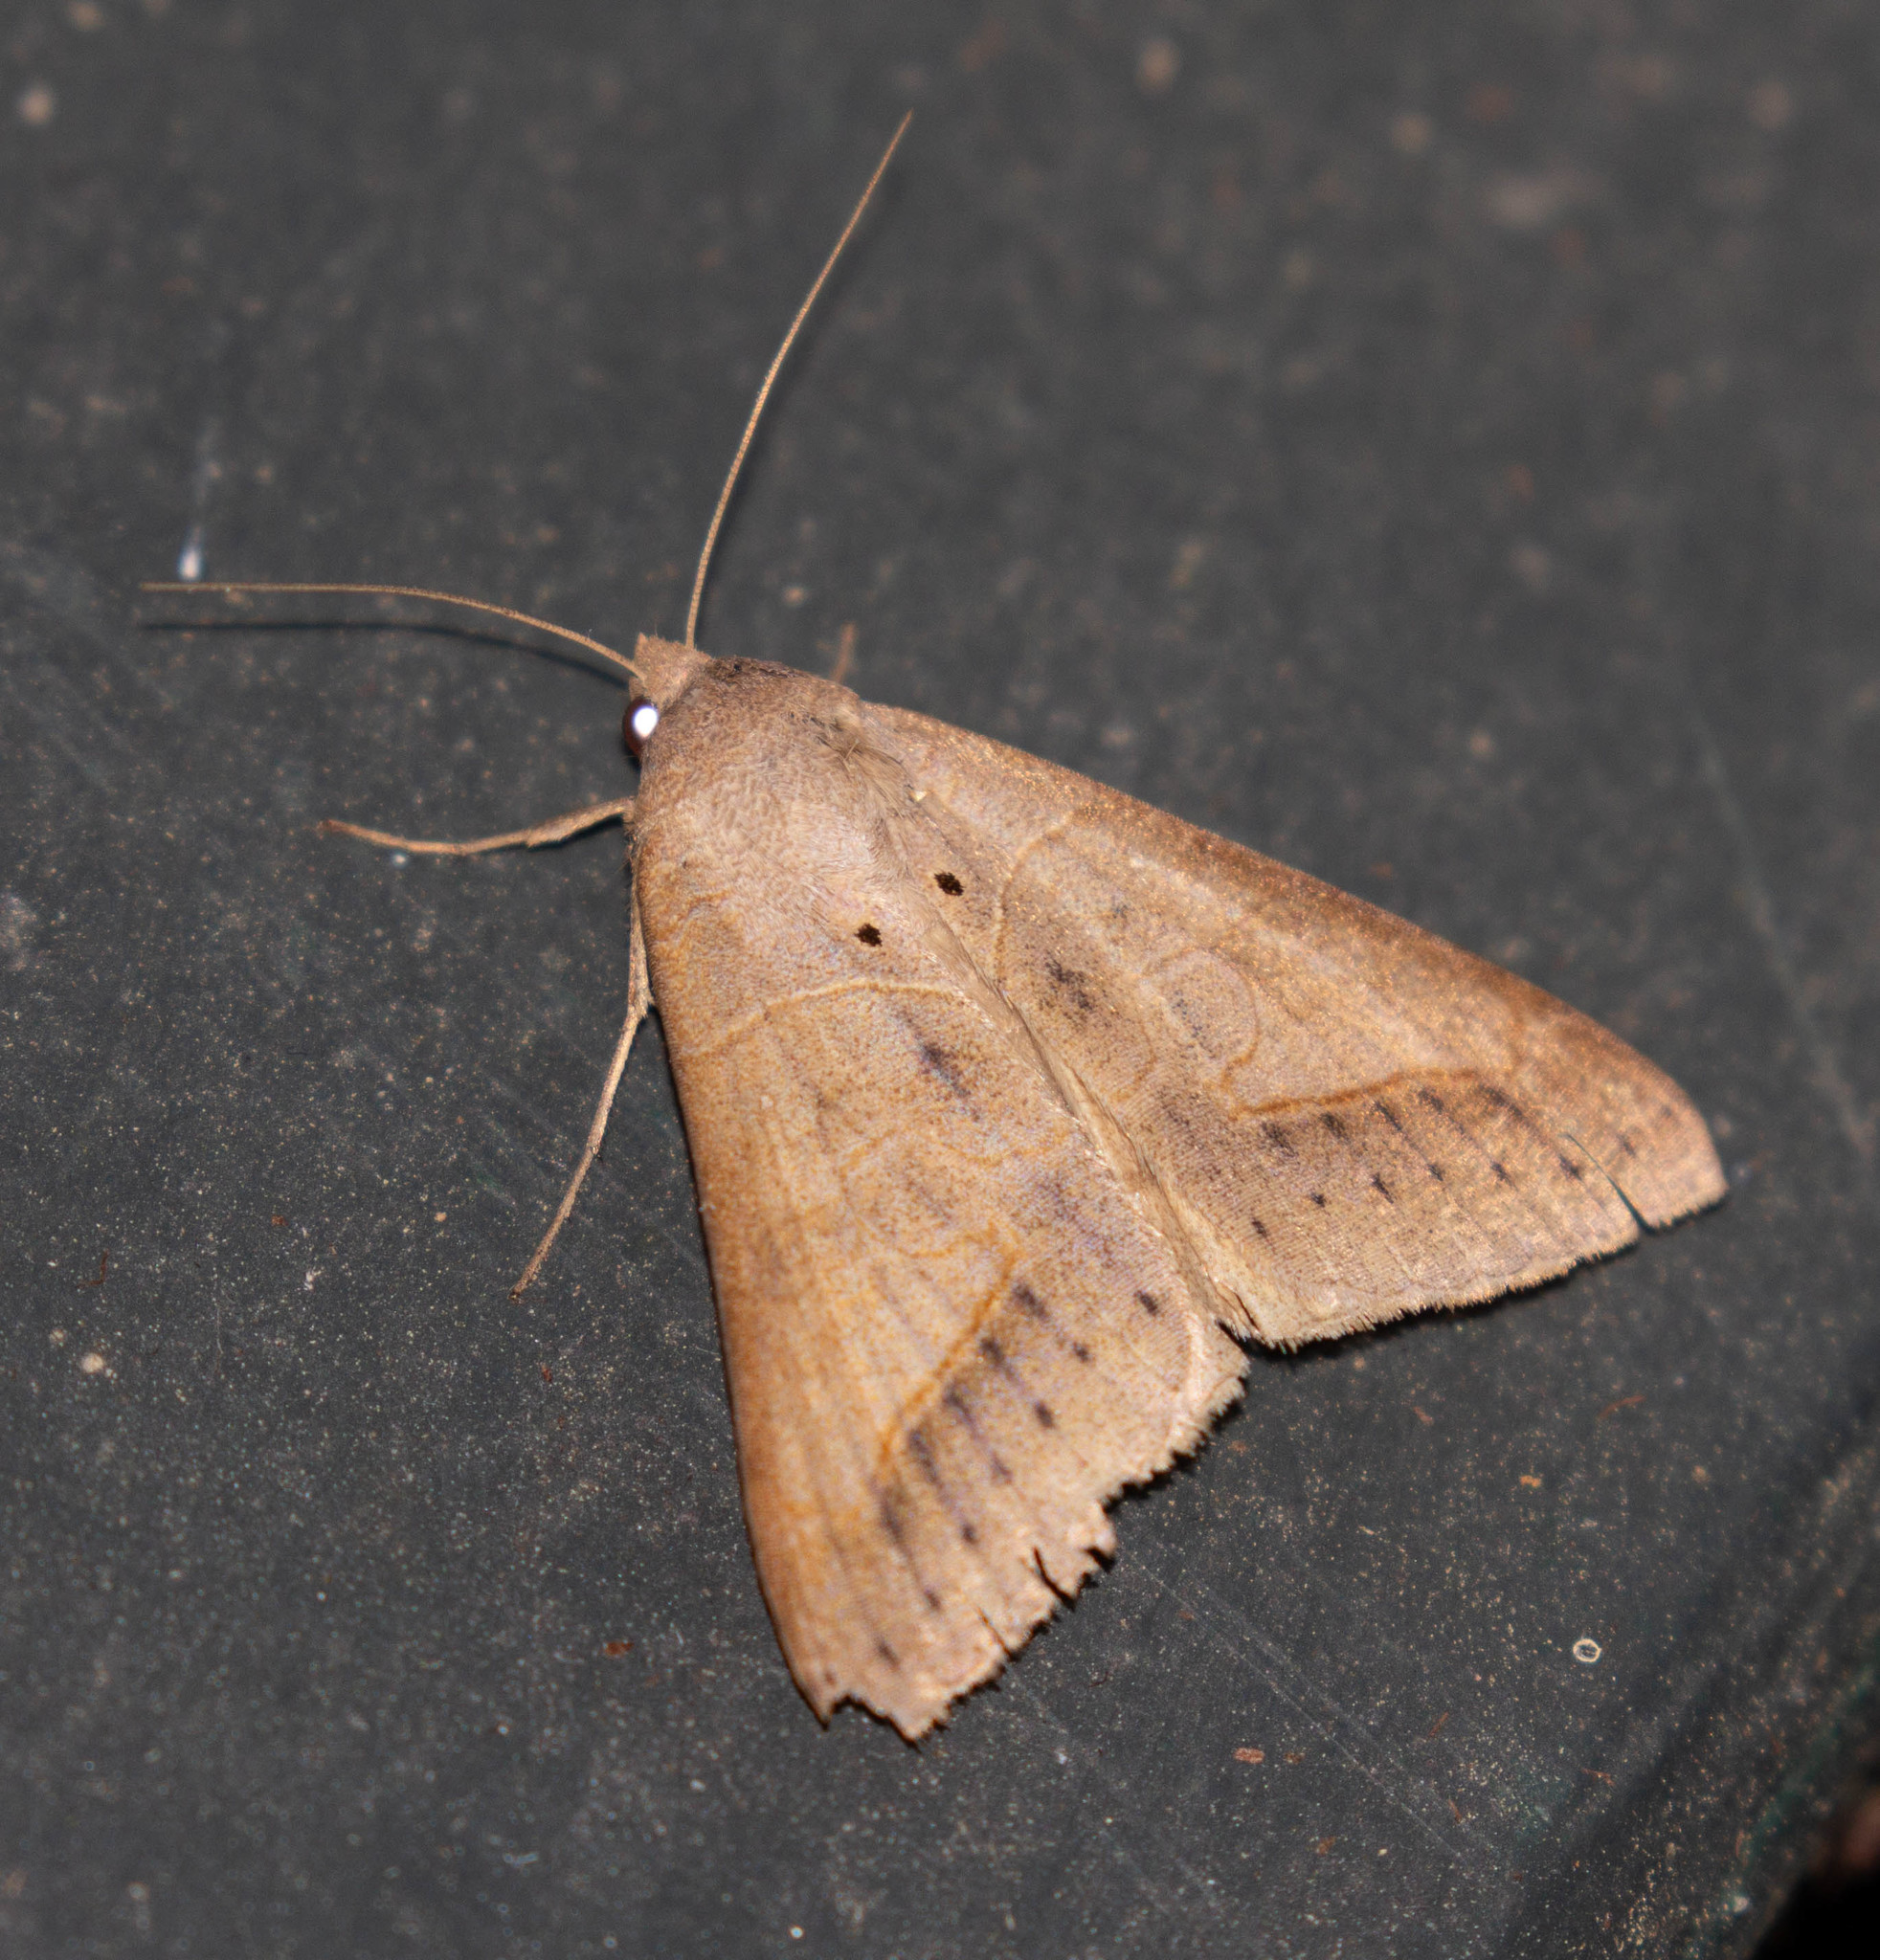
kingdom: Animalia
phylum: Arthropoda
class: Insecta
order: Lepidoptera
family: Erebidae
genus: Mocis
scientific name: Mocis marcida
